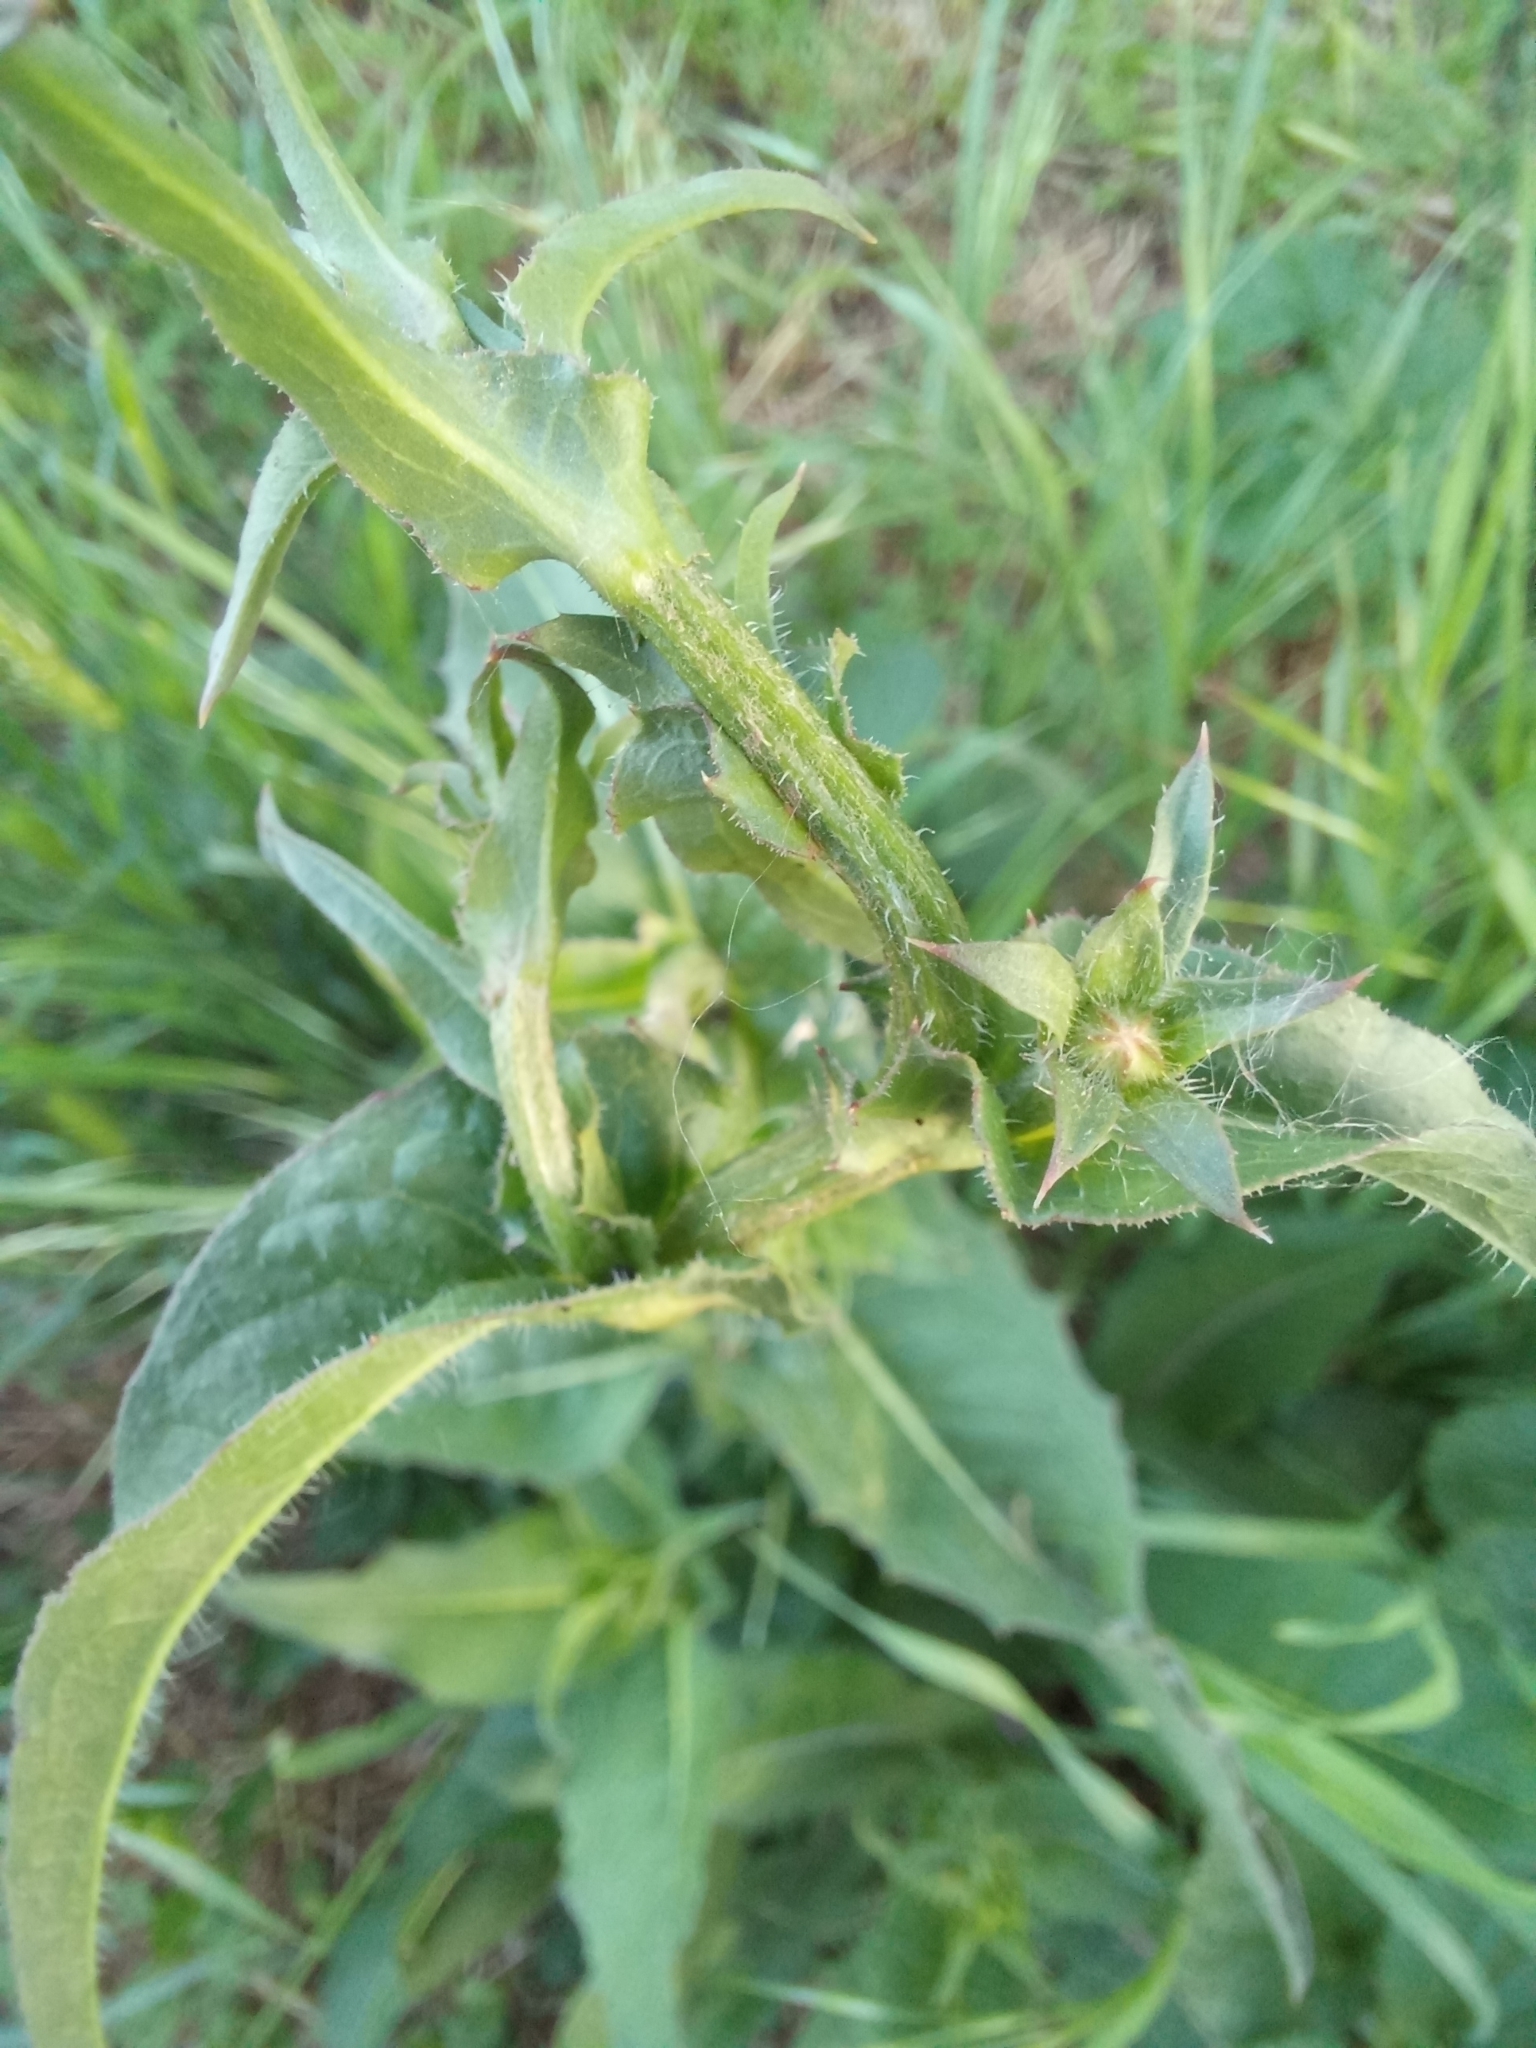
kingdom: Plantae
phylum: Tracheophyta
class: Magnoliopsida
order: Asterales
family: Asteraceae
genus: Cichorium
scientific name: Cichorium intybus
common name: Chicory
